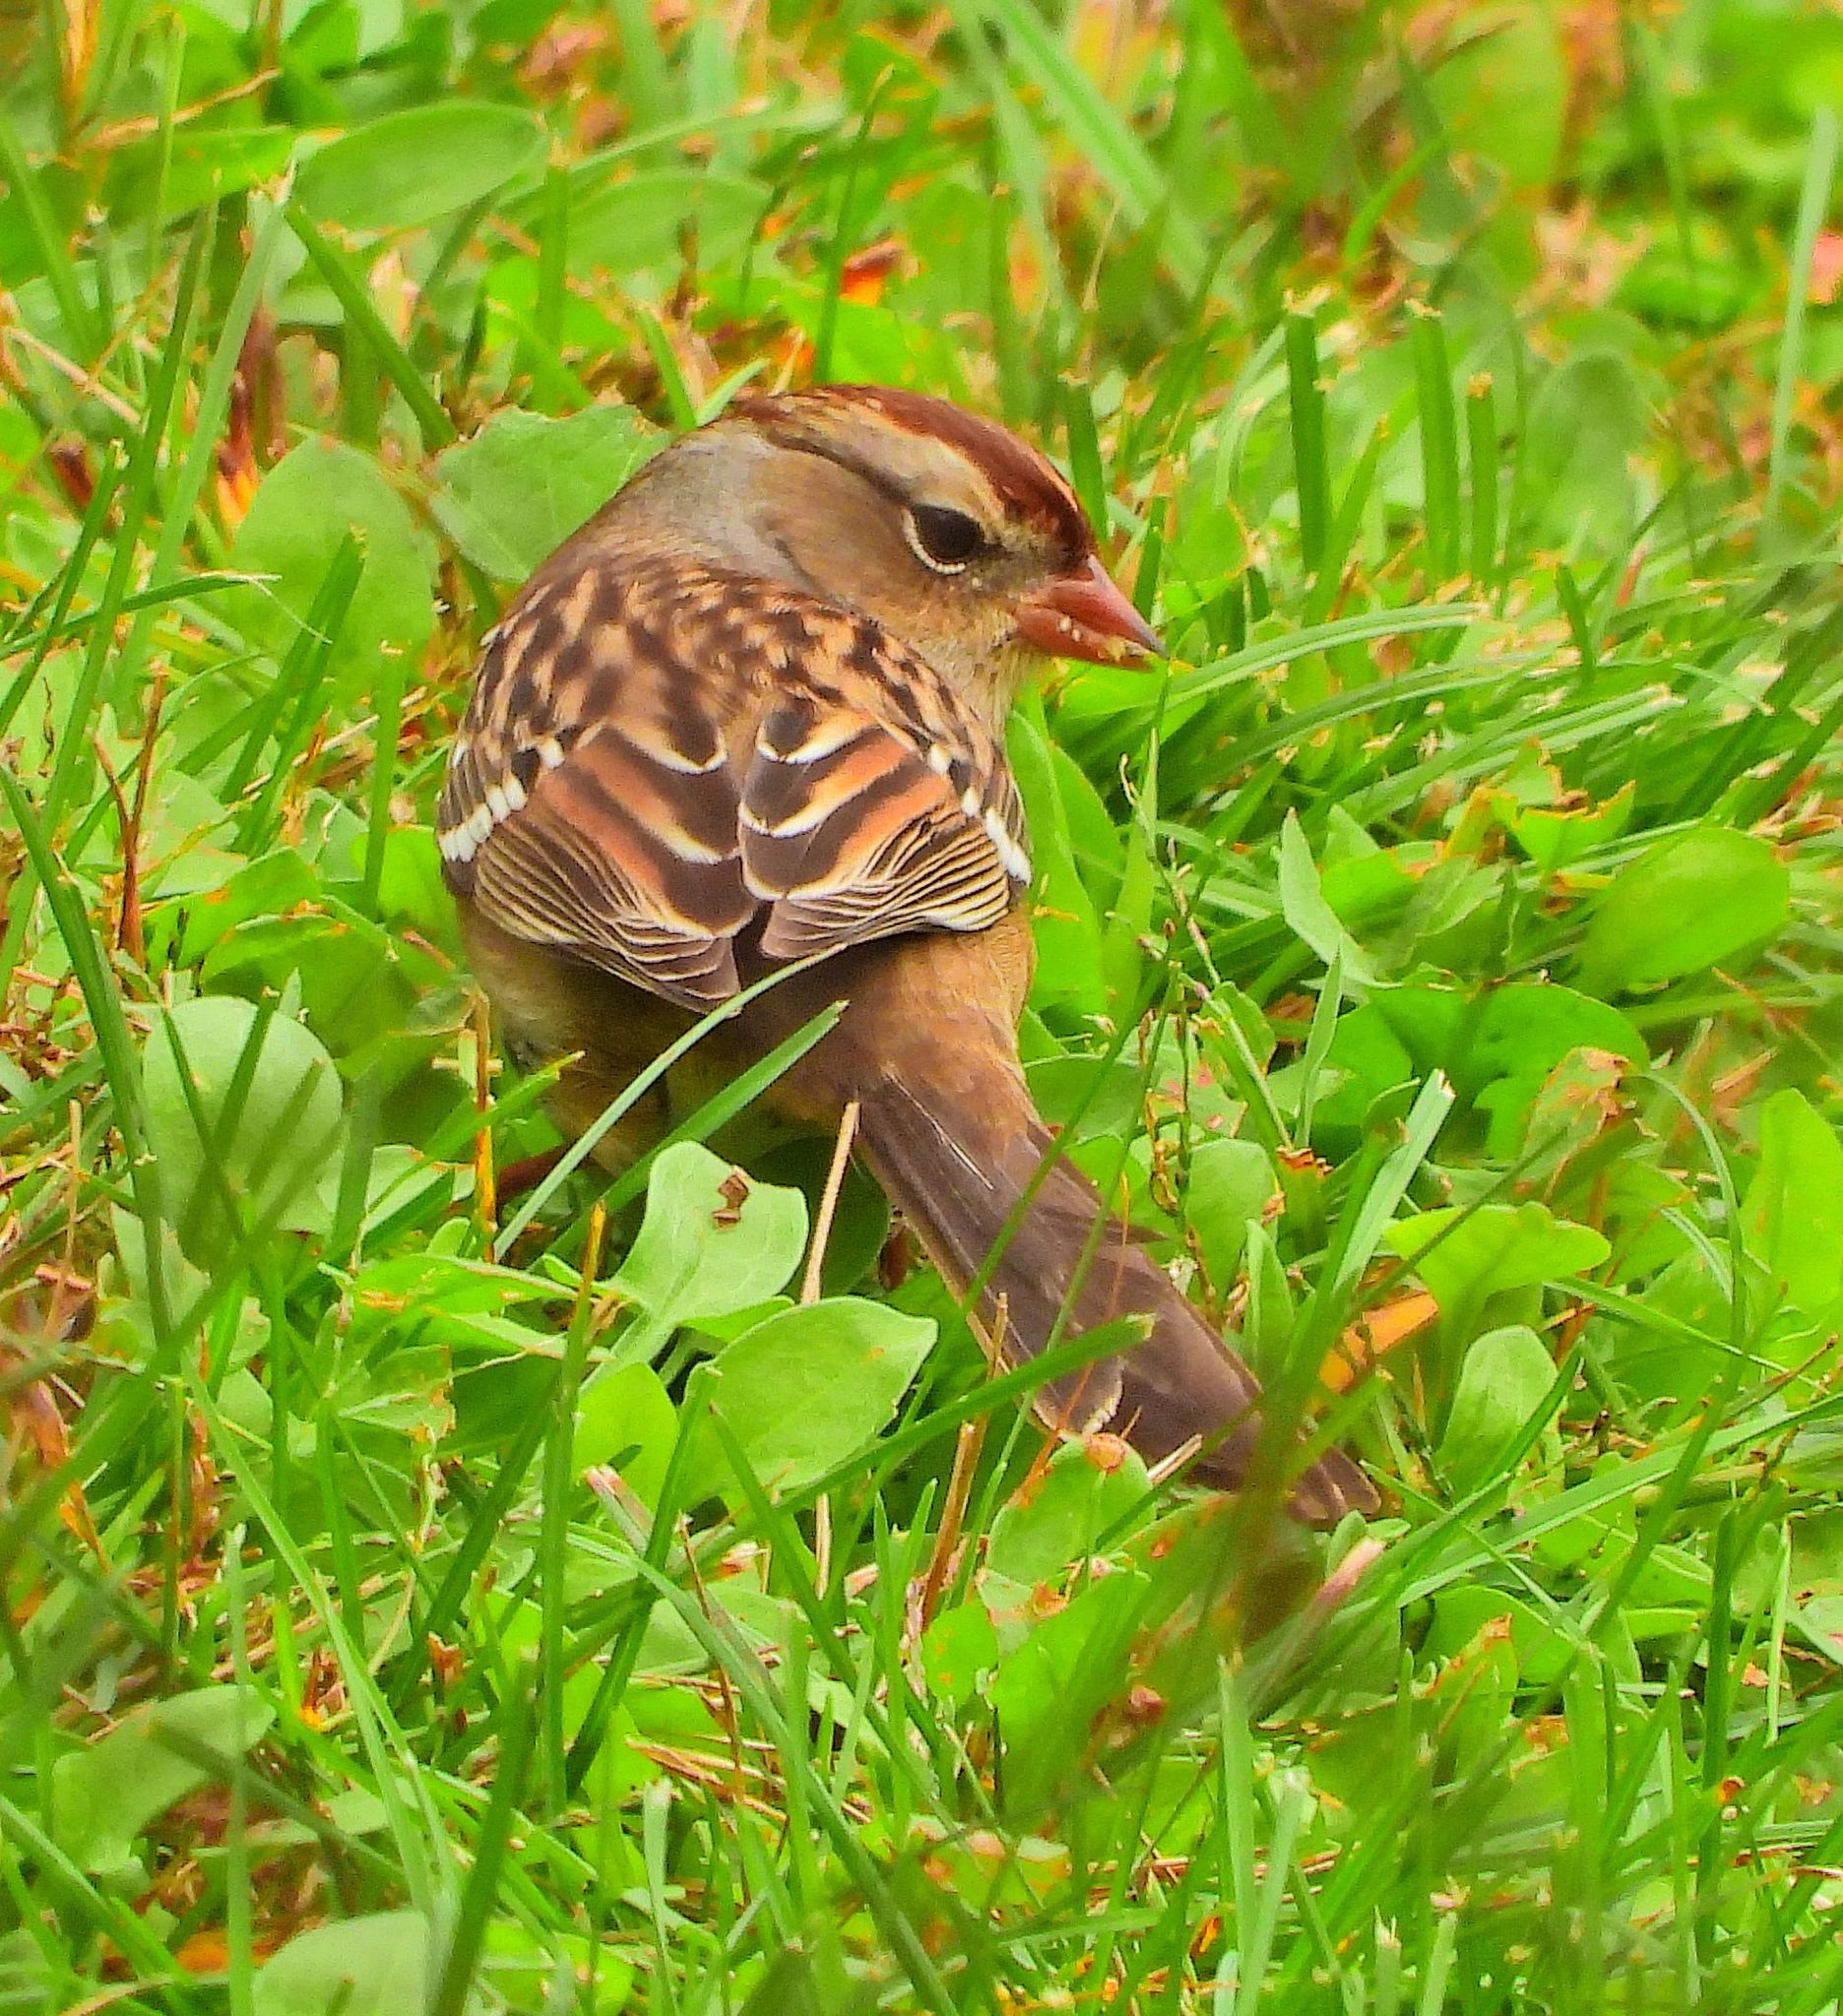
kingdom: Animalia
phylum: Chordata
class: Aves
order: Passeriformes
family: Passerellidae
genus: Zonotrichia
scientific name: Zonotrichia leucophrys
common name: White-crowned sparrow
